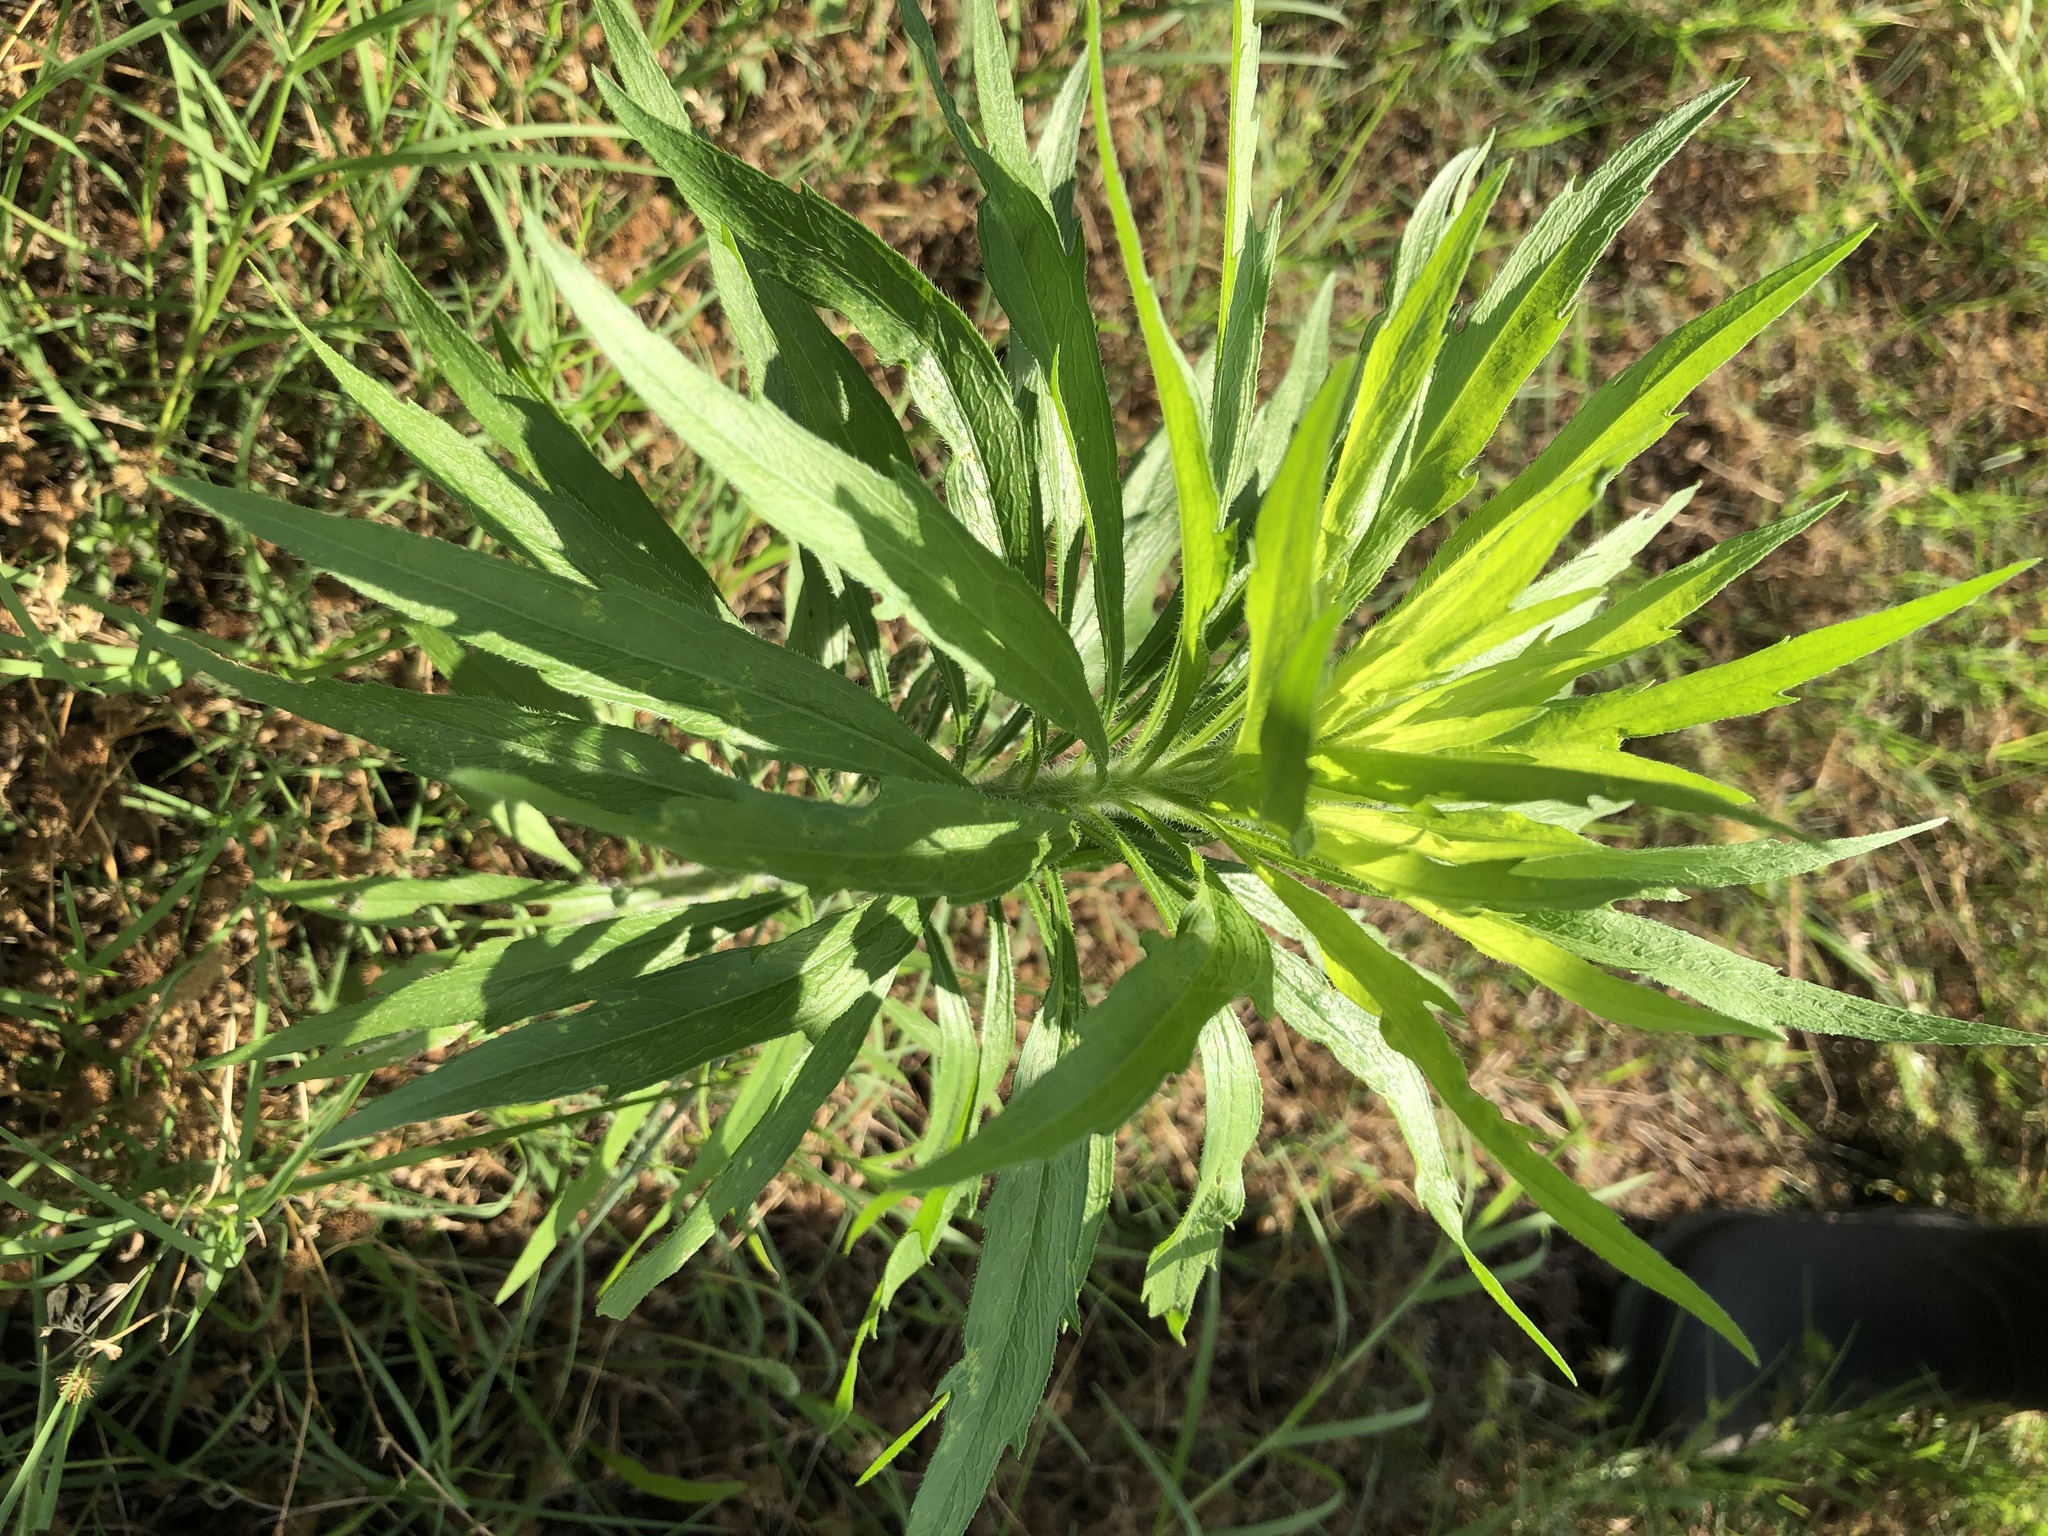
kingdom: Plantae
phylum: Tracheophyta
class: Magnoliopsida
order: Asterales
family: Asteraceae
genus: Erigeron
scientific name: Erigeron canadensis
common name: Canadian fleabane
